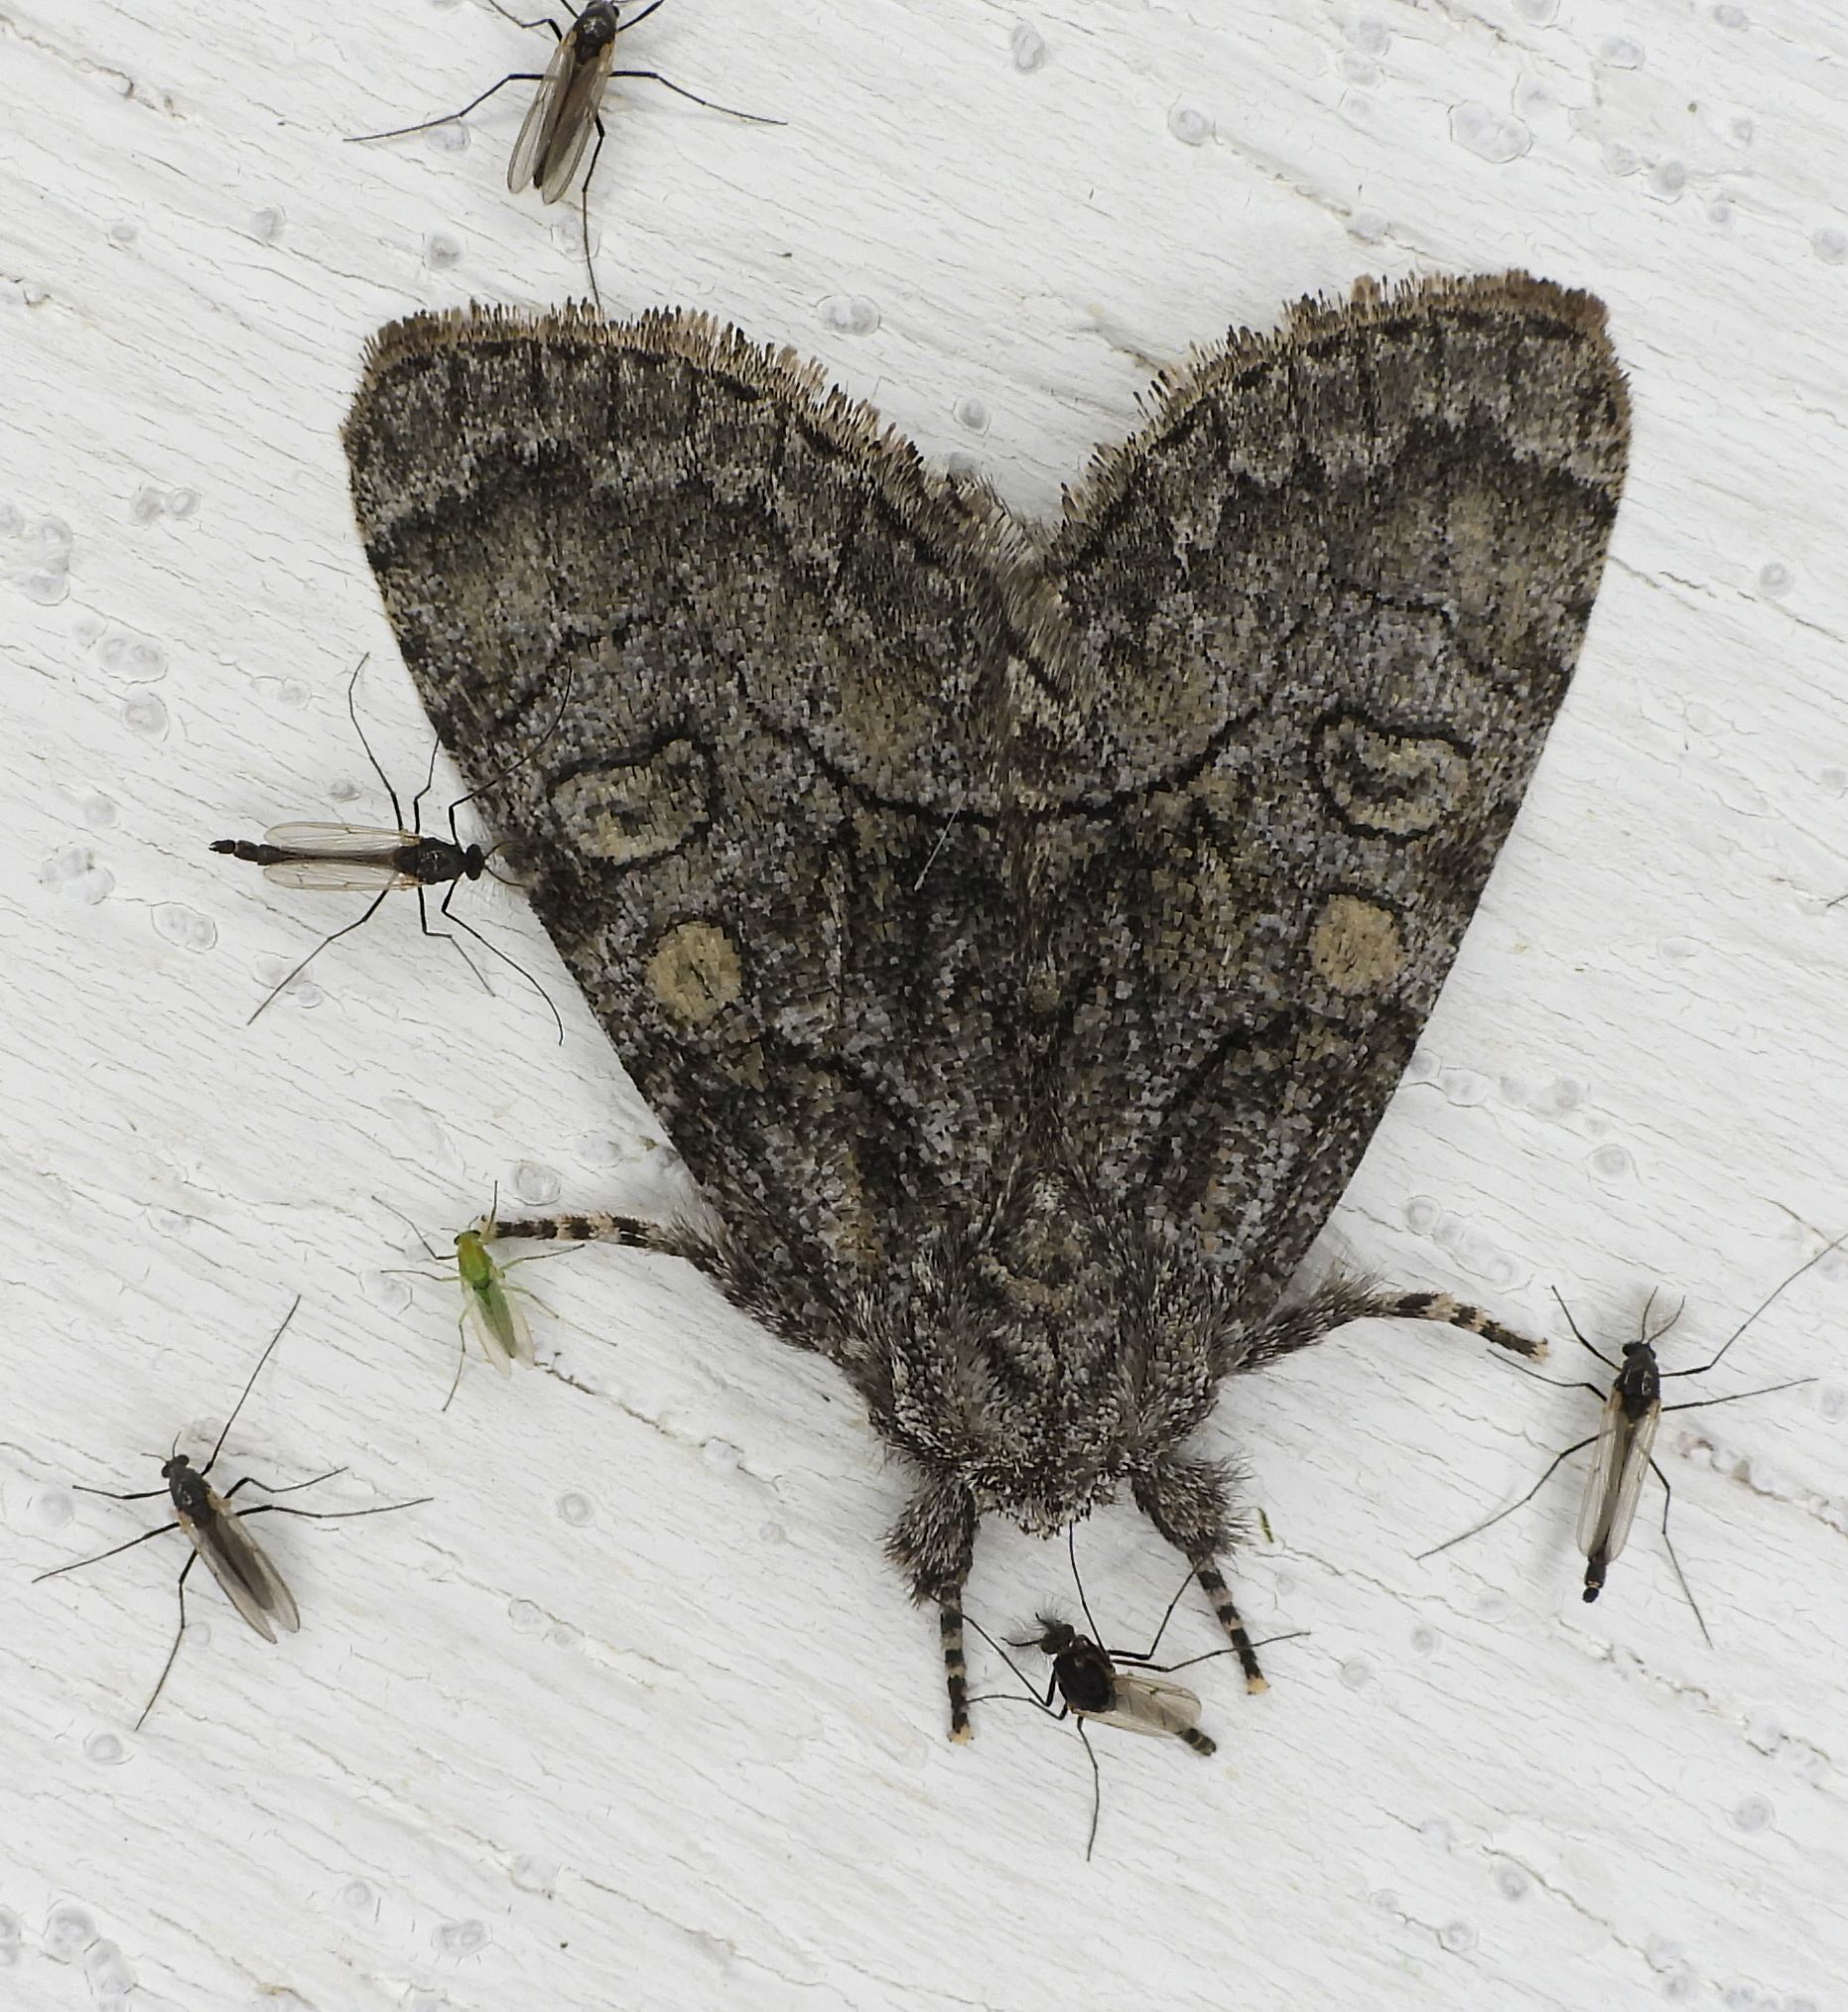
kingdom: Animalia
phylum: Arthropoda
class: Insecta
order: Lepidoptera
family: Noctuidae
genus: Raphia
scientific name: Raphia frater
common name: Brother
